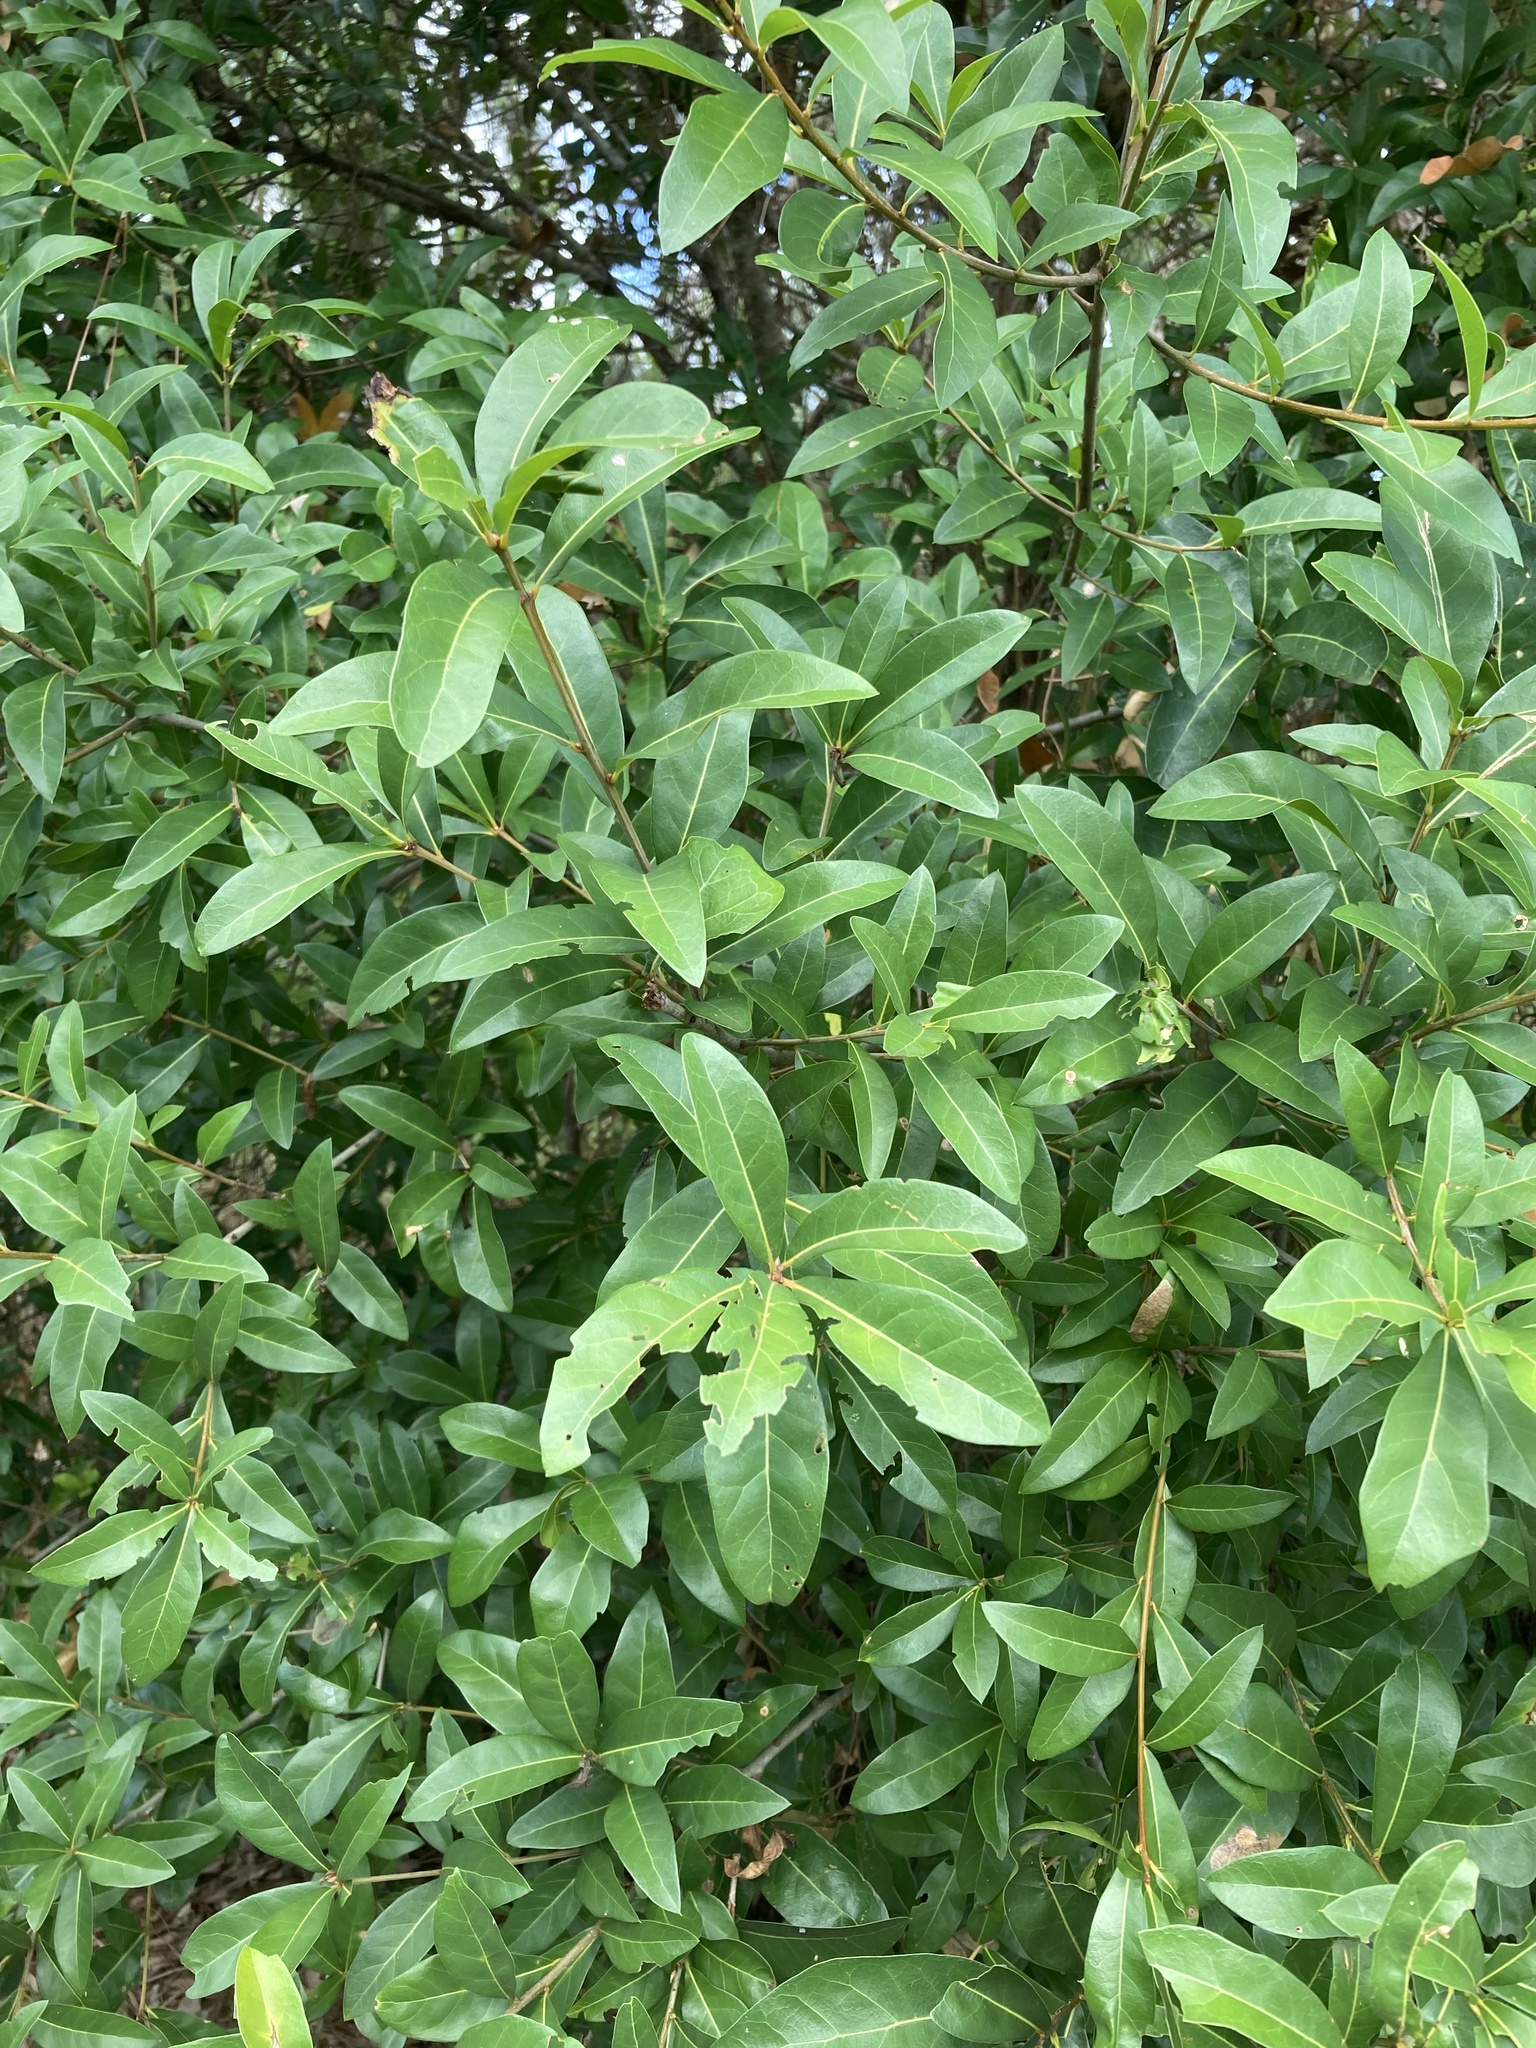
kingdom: Plantae
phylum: Tracheophyta
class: Magnoliopsida
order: Fagales
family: Fagaceae
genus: Quercus
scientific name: Quercus laurifolia
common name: Swamp laurel oak
